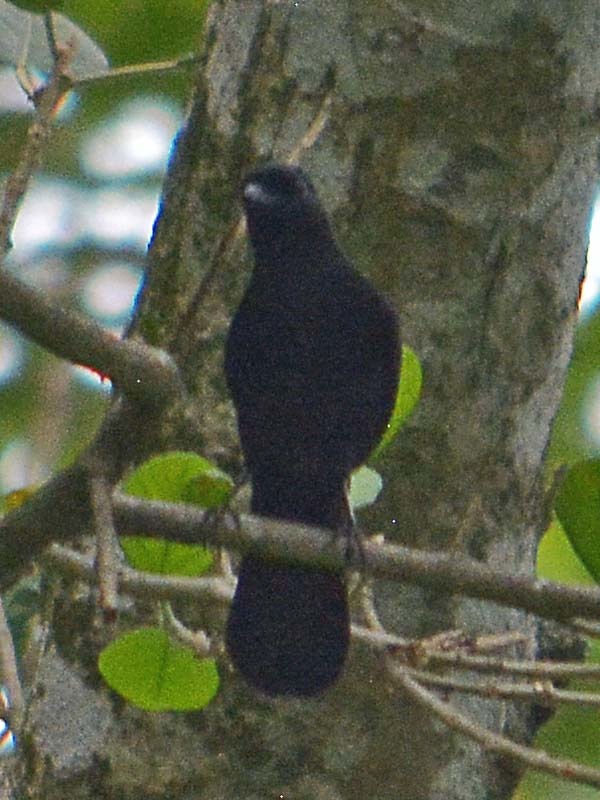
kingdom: Animalia
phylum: Chordata
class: Aves
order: Passeriformes
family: Mimidae
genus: Melanoptila
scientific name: Melanoptila glabrirostris
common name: Black catbird
